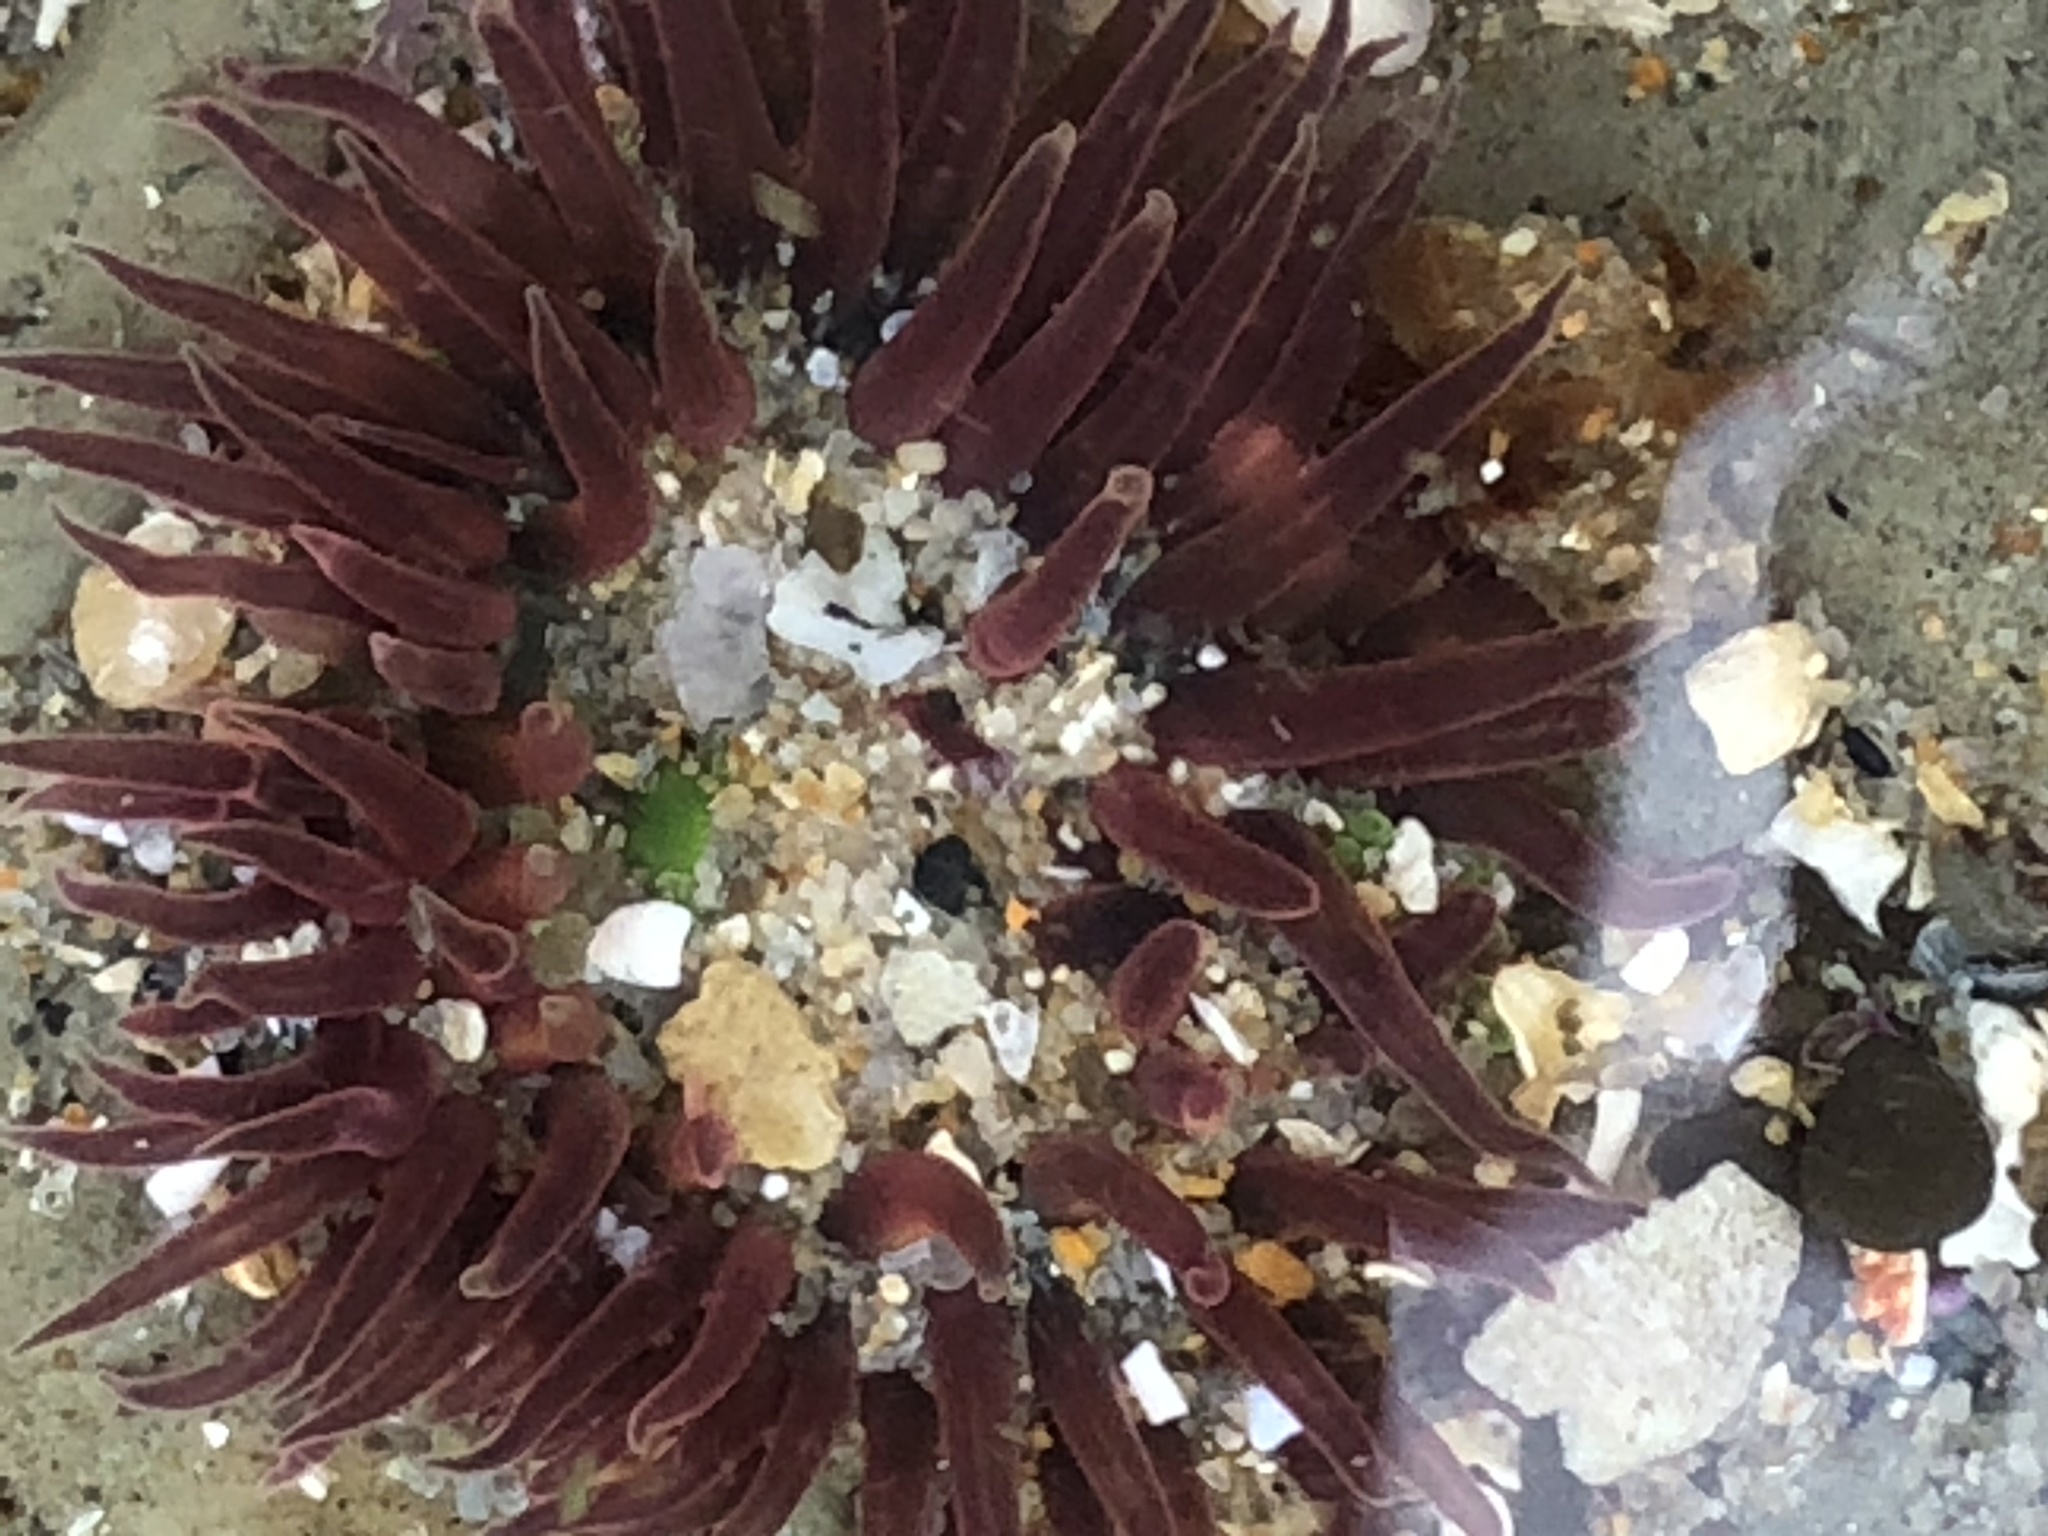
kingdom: Animalia
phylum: Cnidaria
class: Anthozoa
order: Actiniaria
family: Actiniidae
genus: Anthopleura
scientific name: Anthopleura artemisia
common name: Buried sea anemone
